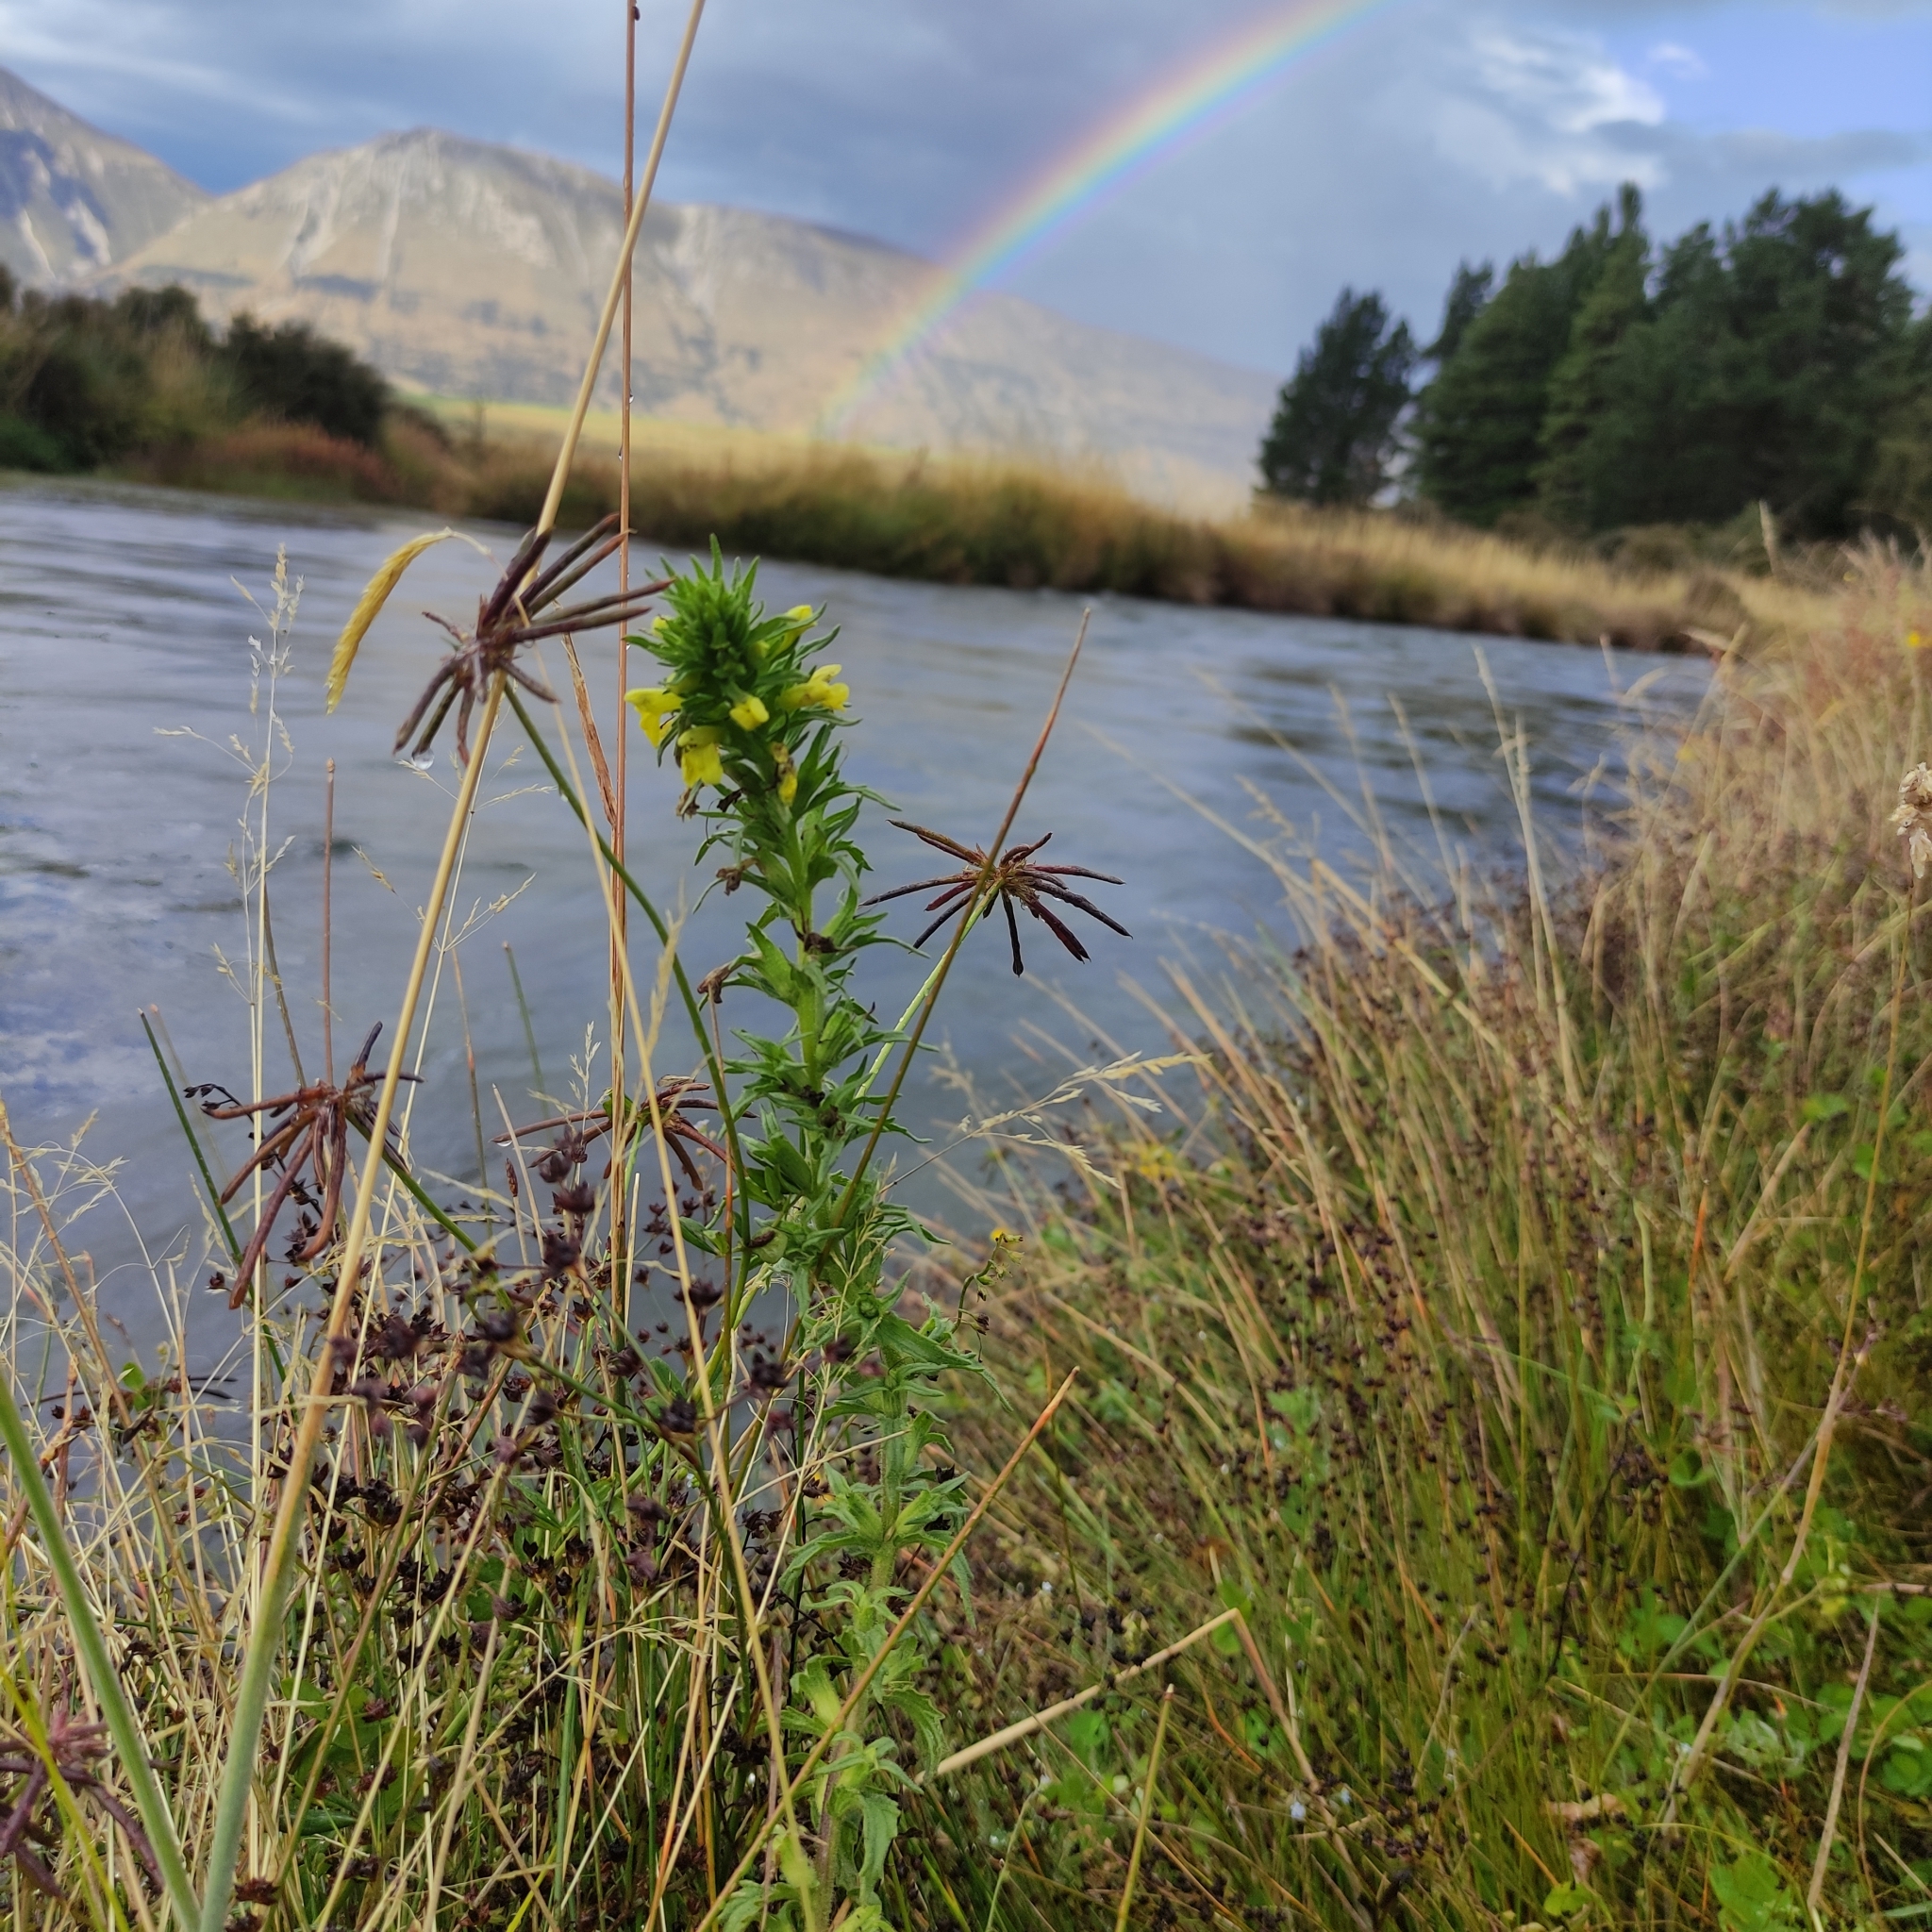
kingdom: Plantae
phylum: Tracheophyta
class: Magnoliopsida
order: Lamiales
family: Orobanchaceae
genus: Bellardia
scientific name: Bellardia viscosa
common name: Sticky parentucellia
